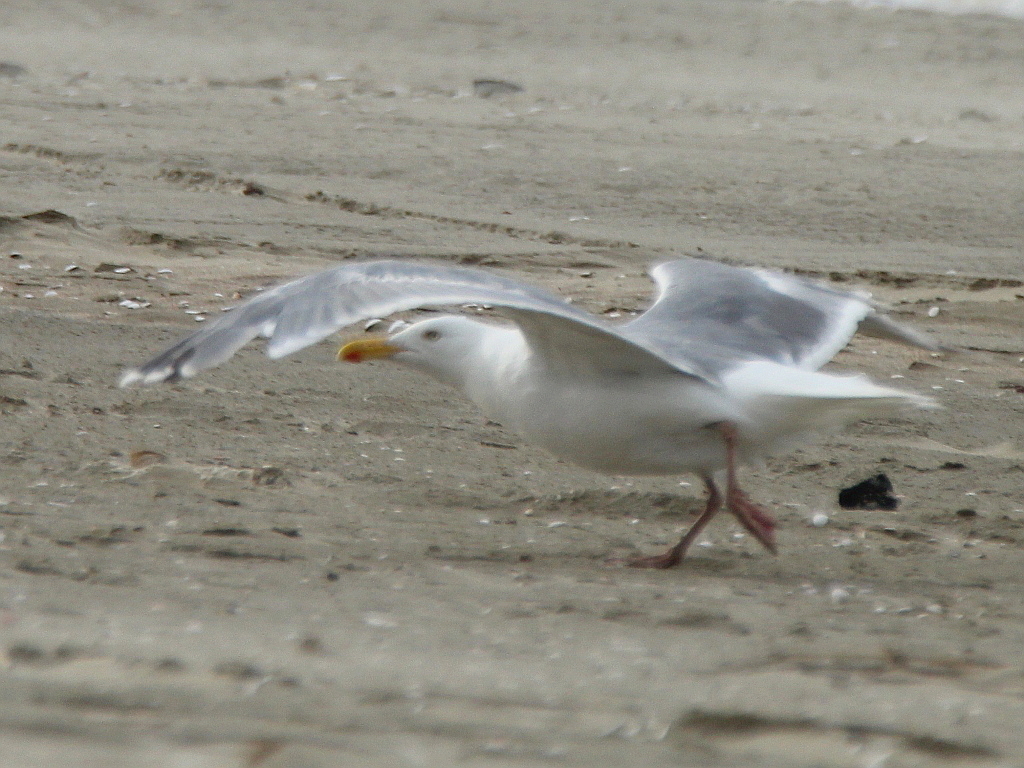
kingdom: Animalia
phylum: Chordata
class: Aves
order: Charadriiformes
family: Laridae
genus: Larus
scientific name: Larus argentatus
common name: Herring gull
